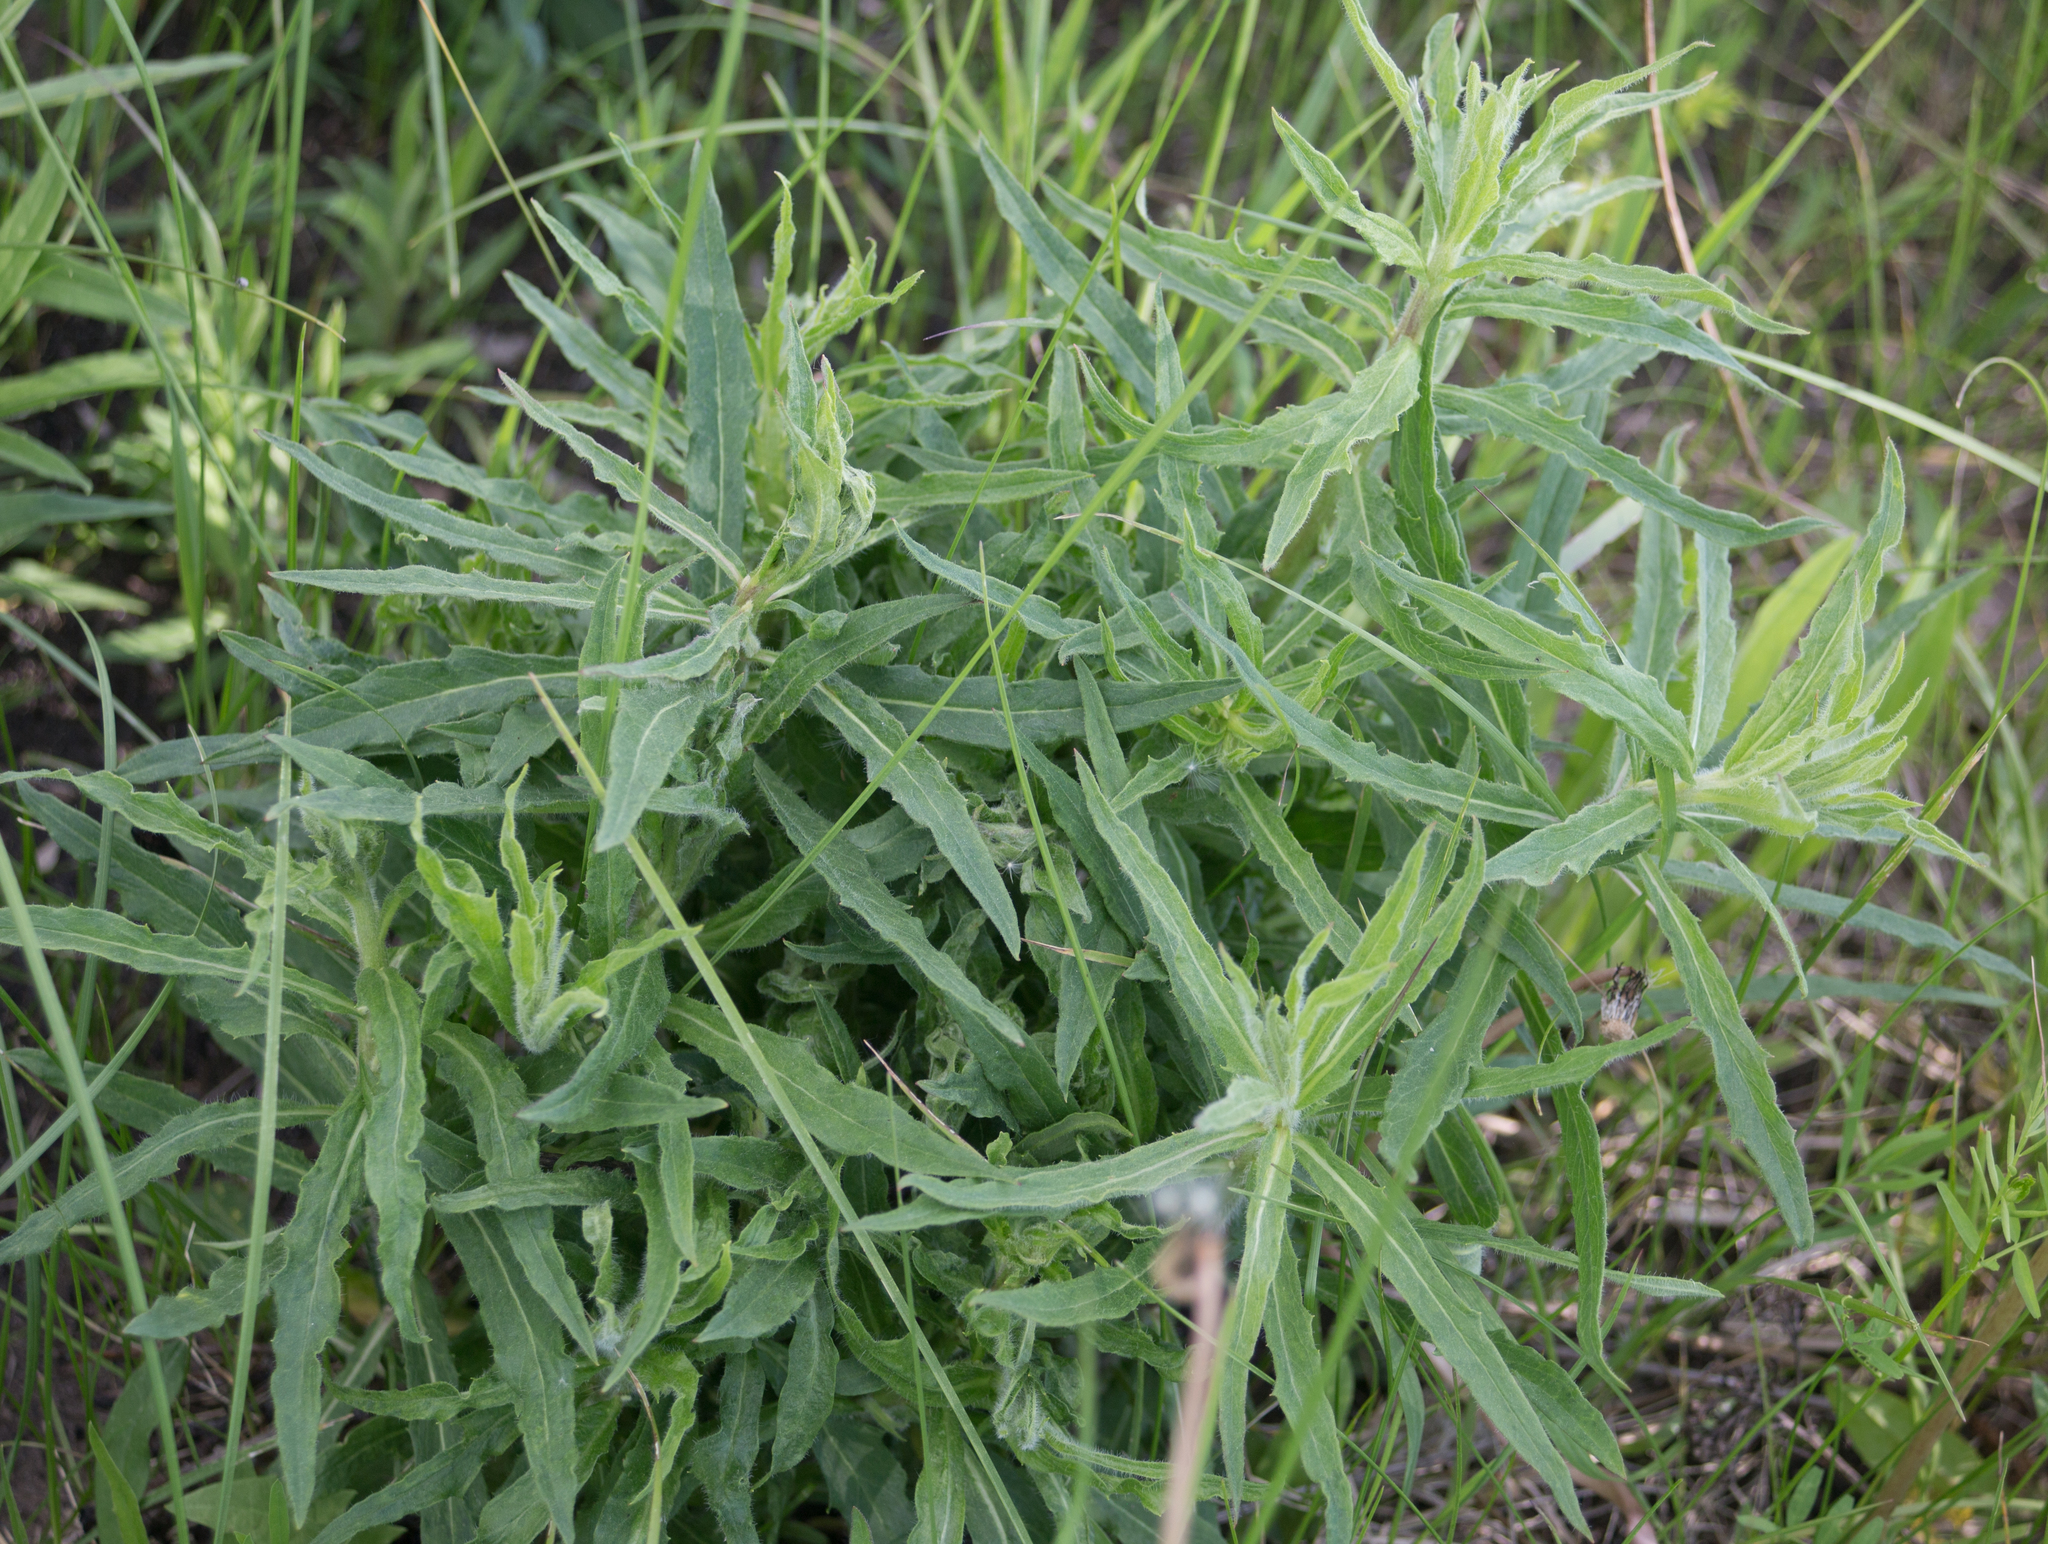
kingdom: Plantae
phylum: Tracheophyta
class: Magnoliopsida
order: Asterales
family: Asteraceae
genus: Hieracium
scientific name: Hieracium umbellatum
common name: Northern hawkweed
